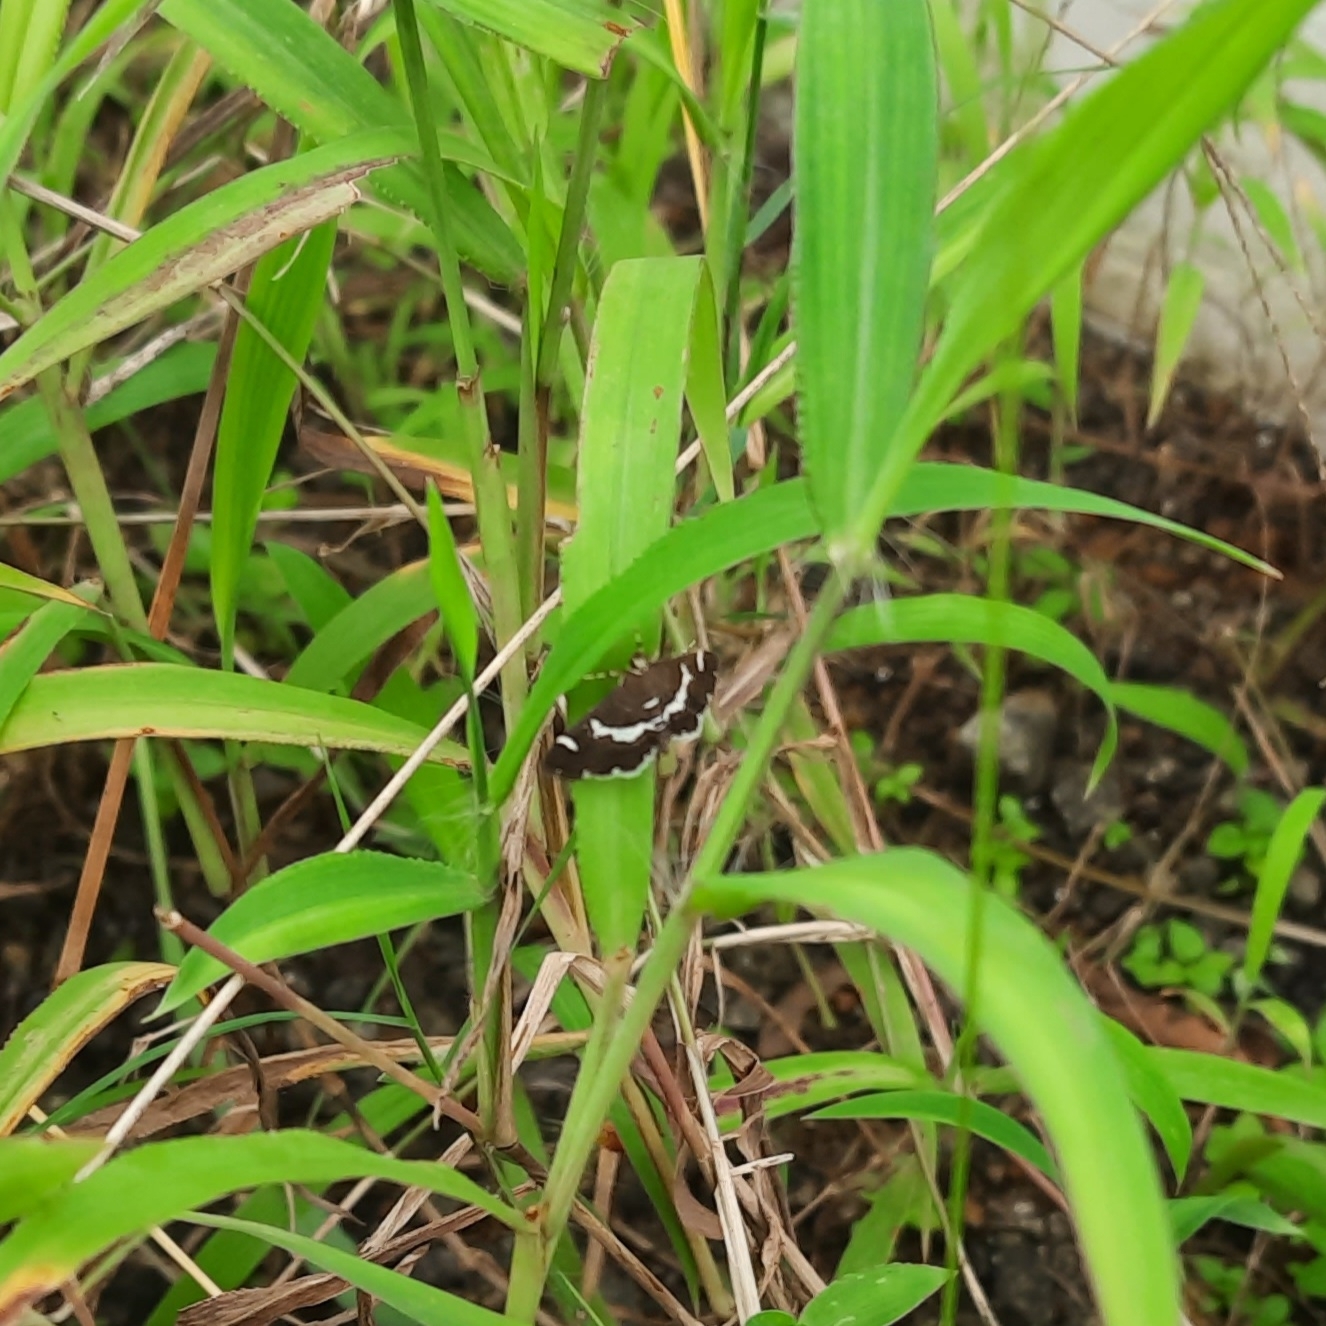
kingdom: Animalia
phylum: Arthropoda
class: Insecta
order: Lepidoptera
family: Crambidae
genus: Spoladea
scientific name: Spoladea recurvalis
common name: Beet webworm moth
